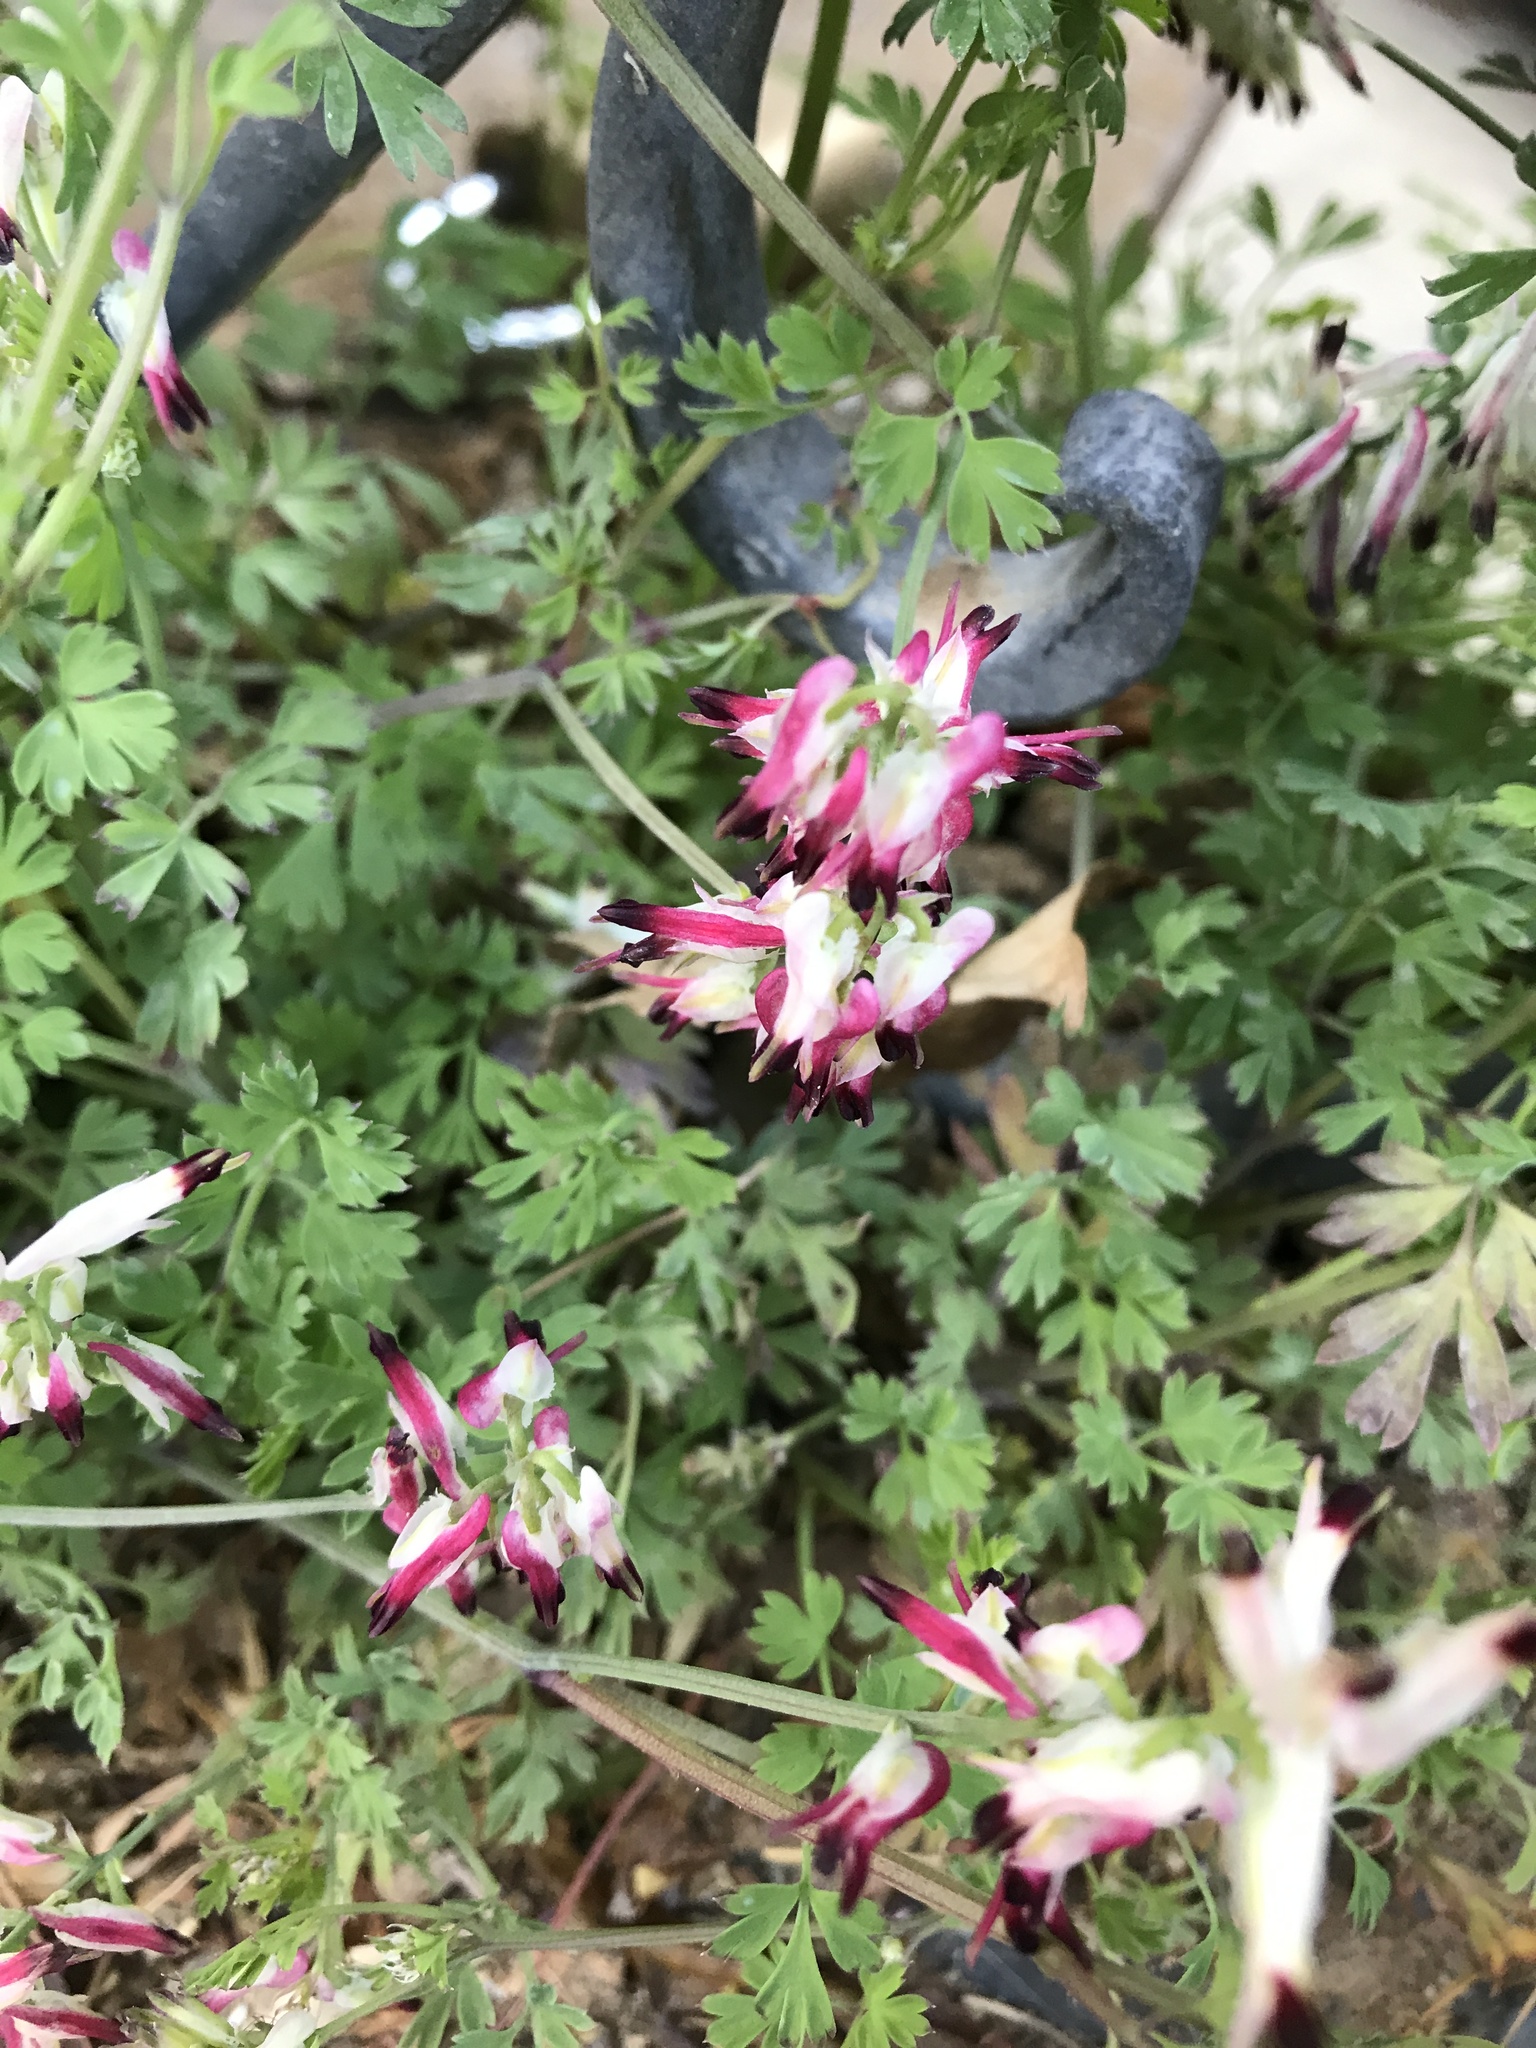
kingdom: Plantae
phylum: Tracheophyta
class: Magnoliopsida
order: Ranunculales
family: Papaveraceae
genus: Fumaria
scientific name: Fumaria capreolata
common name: White ramping-fumitory
